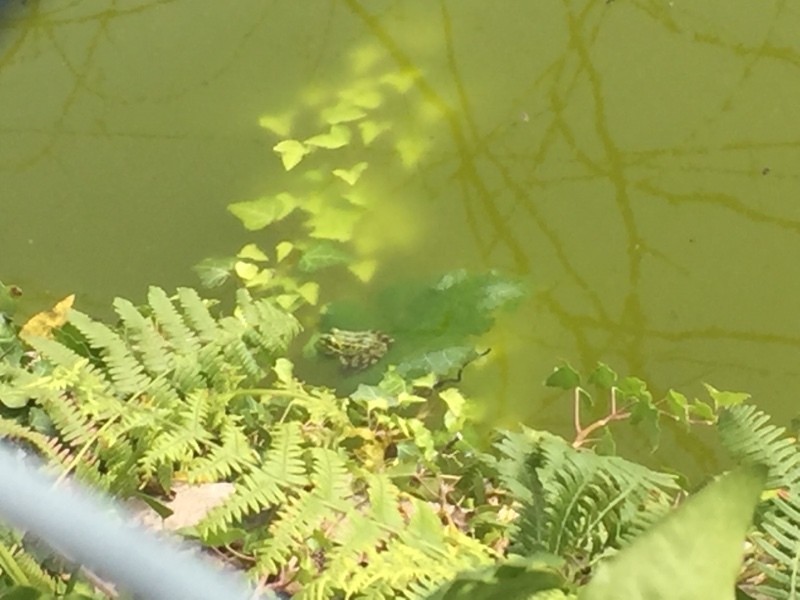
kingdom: Animalia
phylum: Chordata
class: Amphibia
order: Anura
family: Ranidae
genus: Pelophylax
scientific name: Pelophylax perezi
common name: Perez's frog
